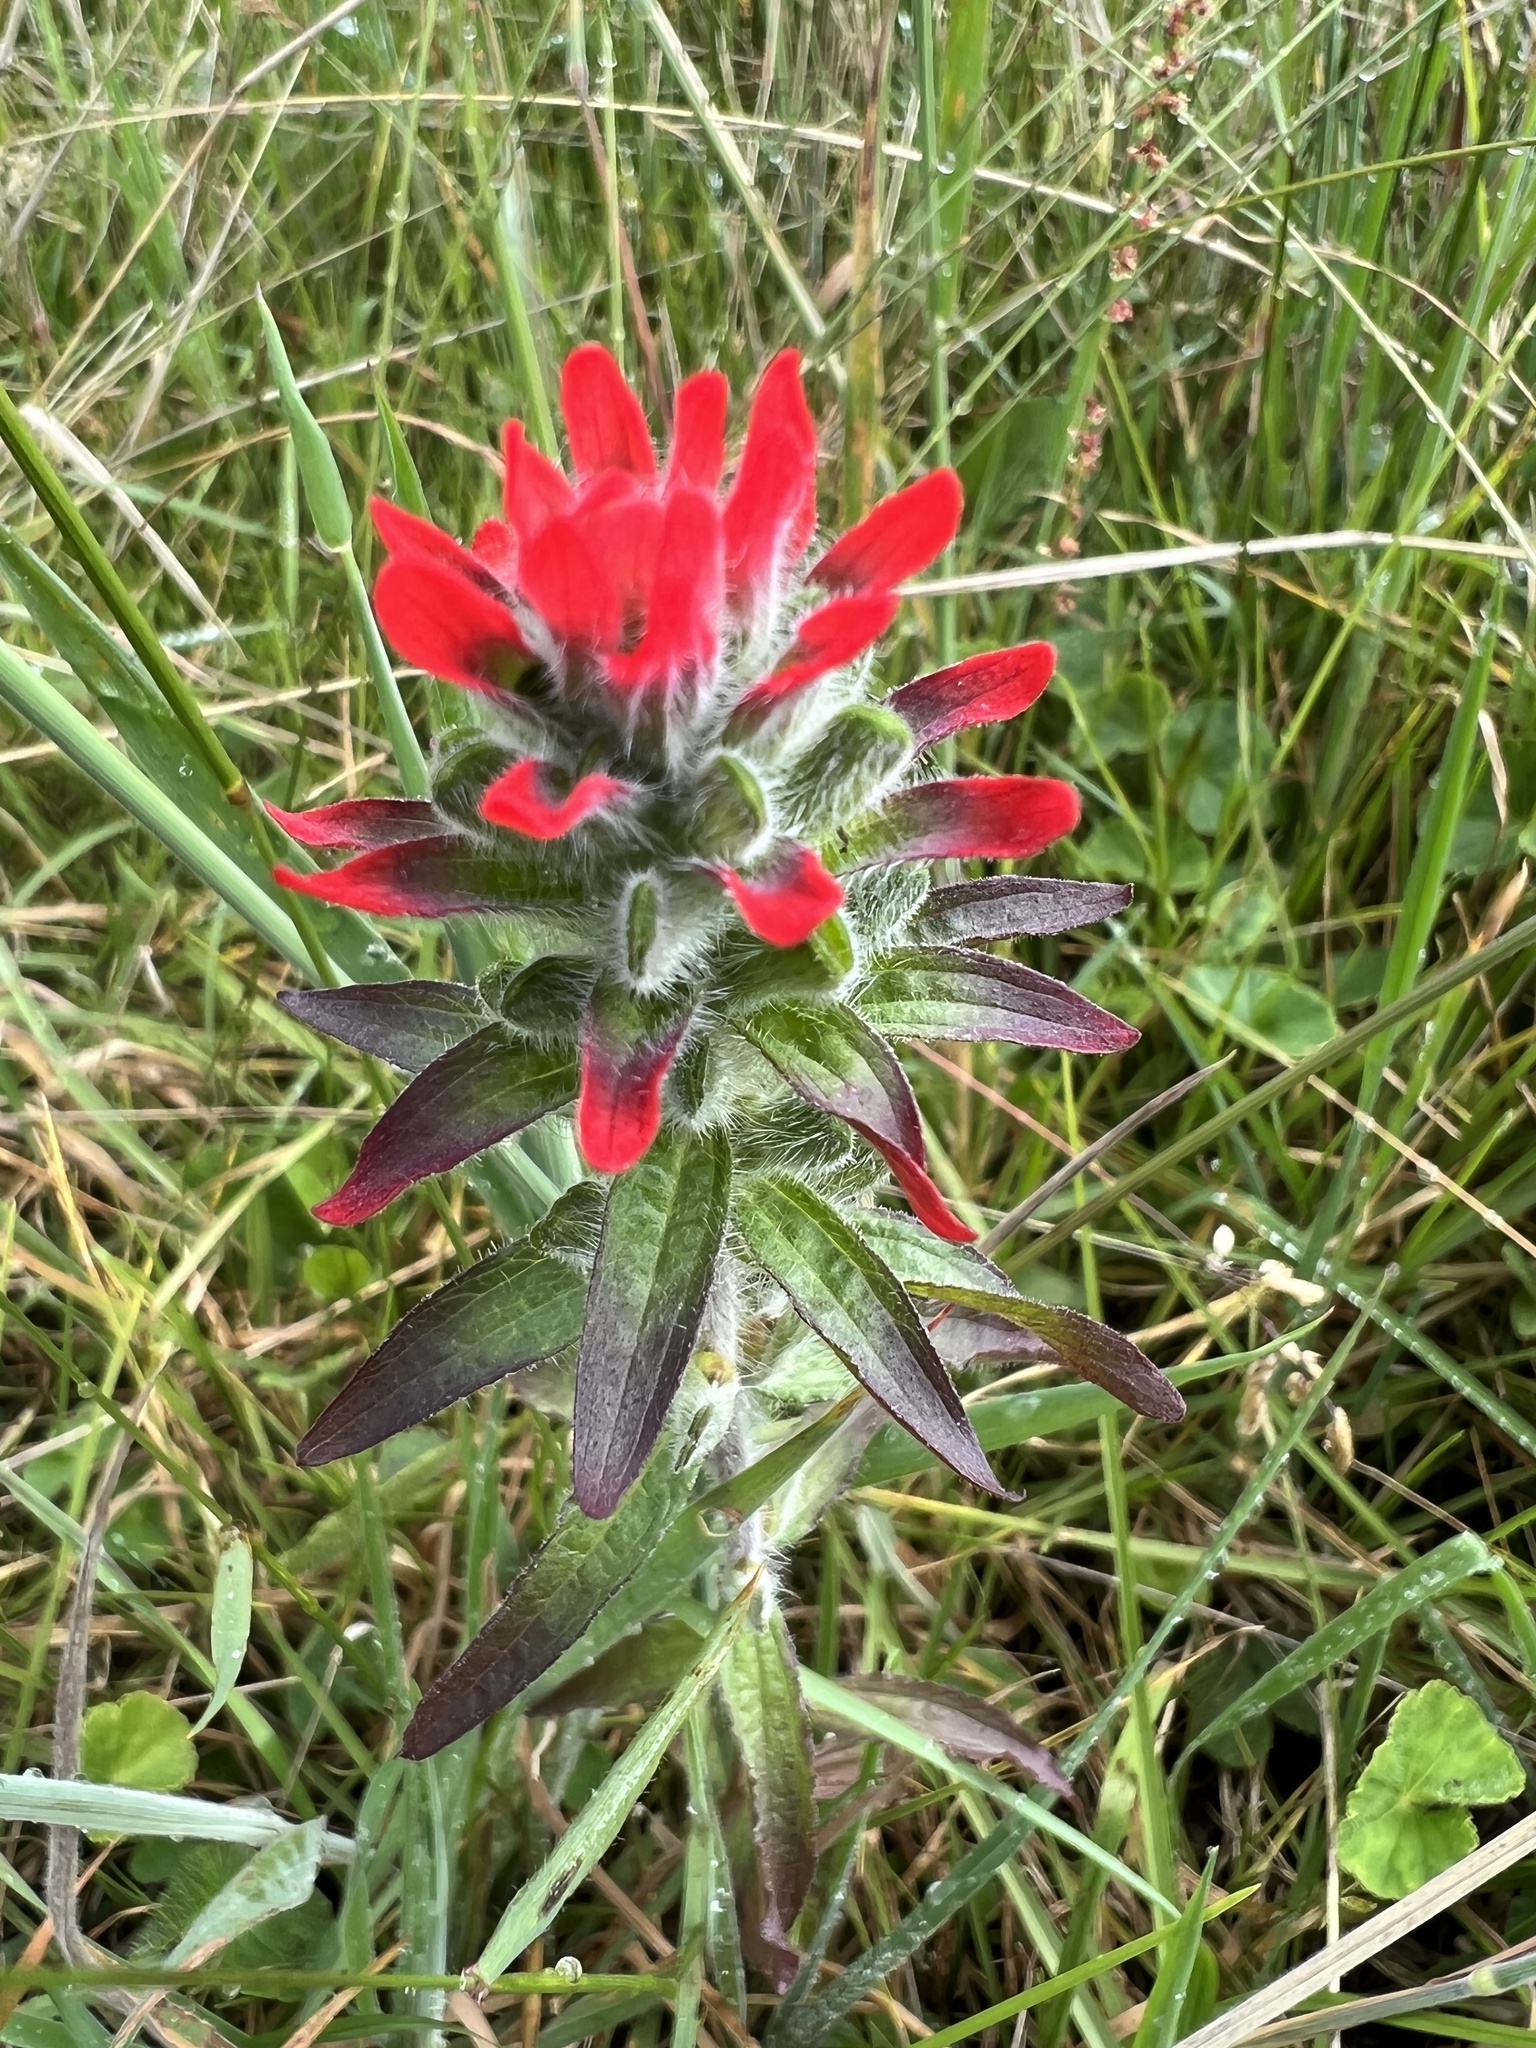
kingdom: Plantae
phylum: Tracheophyta
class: Magnoliopsida
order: Lamiales
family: Orobanchaceae
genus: Castilleja
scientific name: Castilleja arvensis
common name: Indian paintbrush
